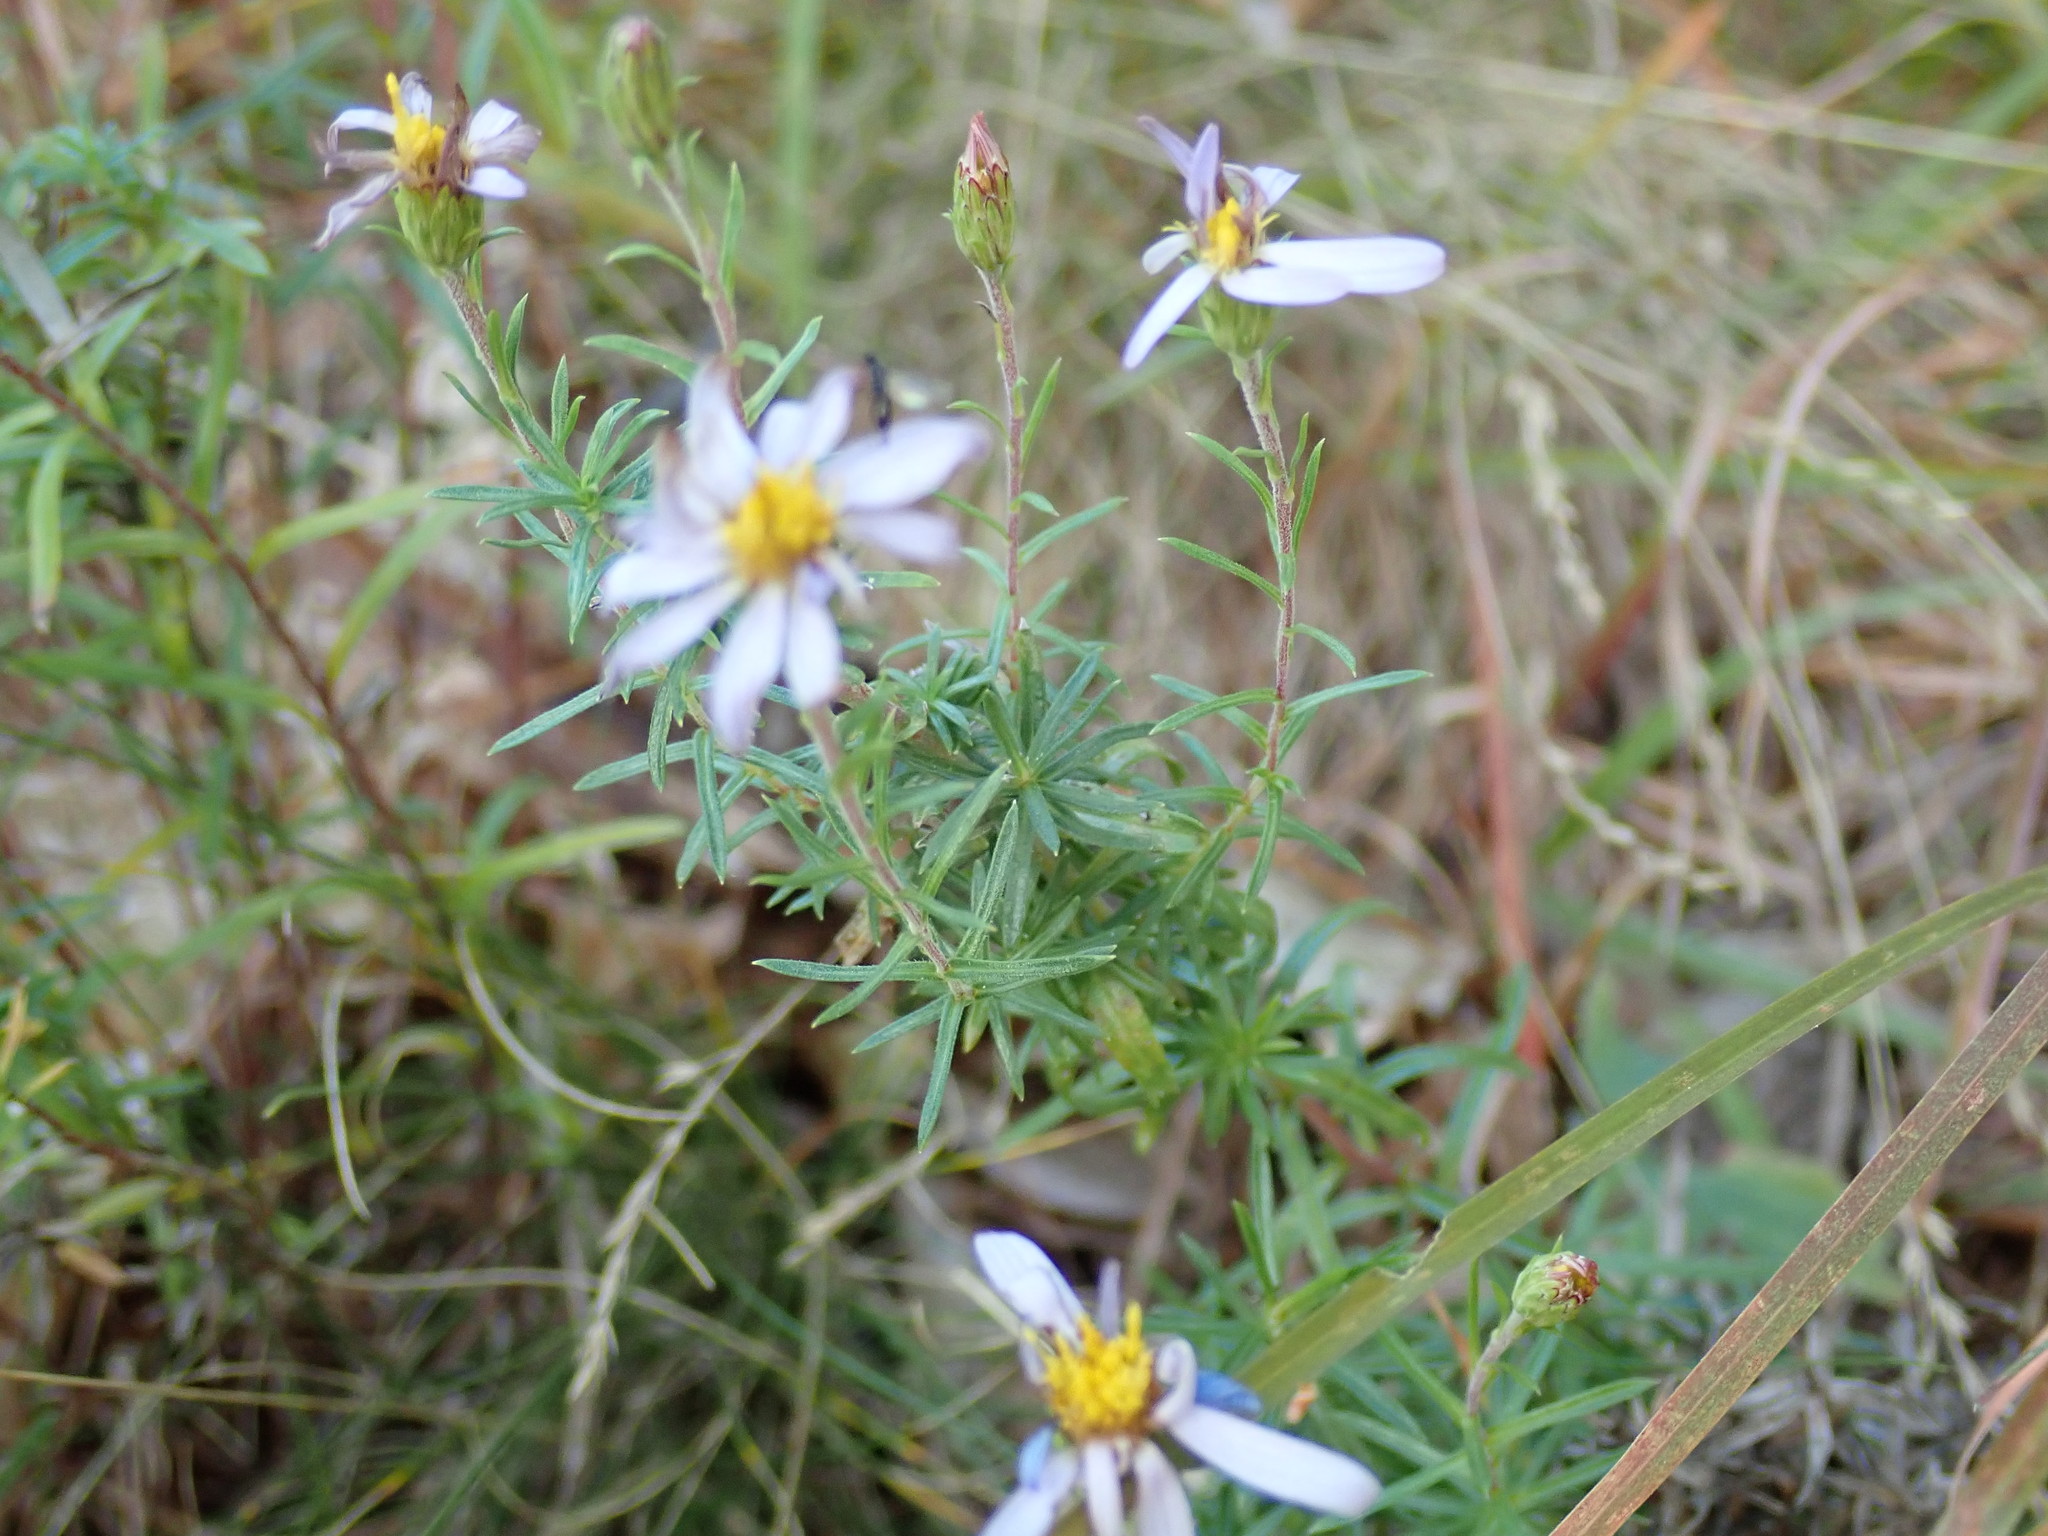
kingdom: Plantae
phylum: Tracheophyta
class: Magnoliopsida
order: Asterales
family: Asteraceae
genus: Ionactis
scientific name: Ionactis linariifolia
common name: Flax-leaf aster
